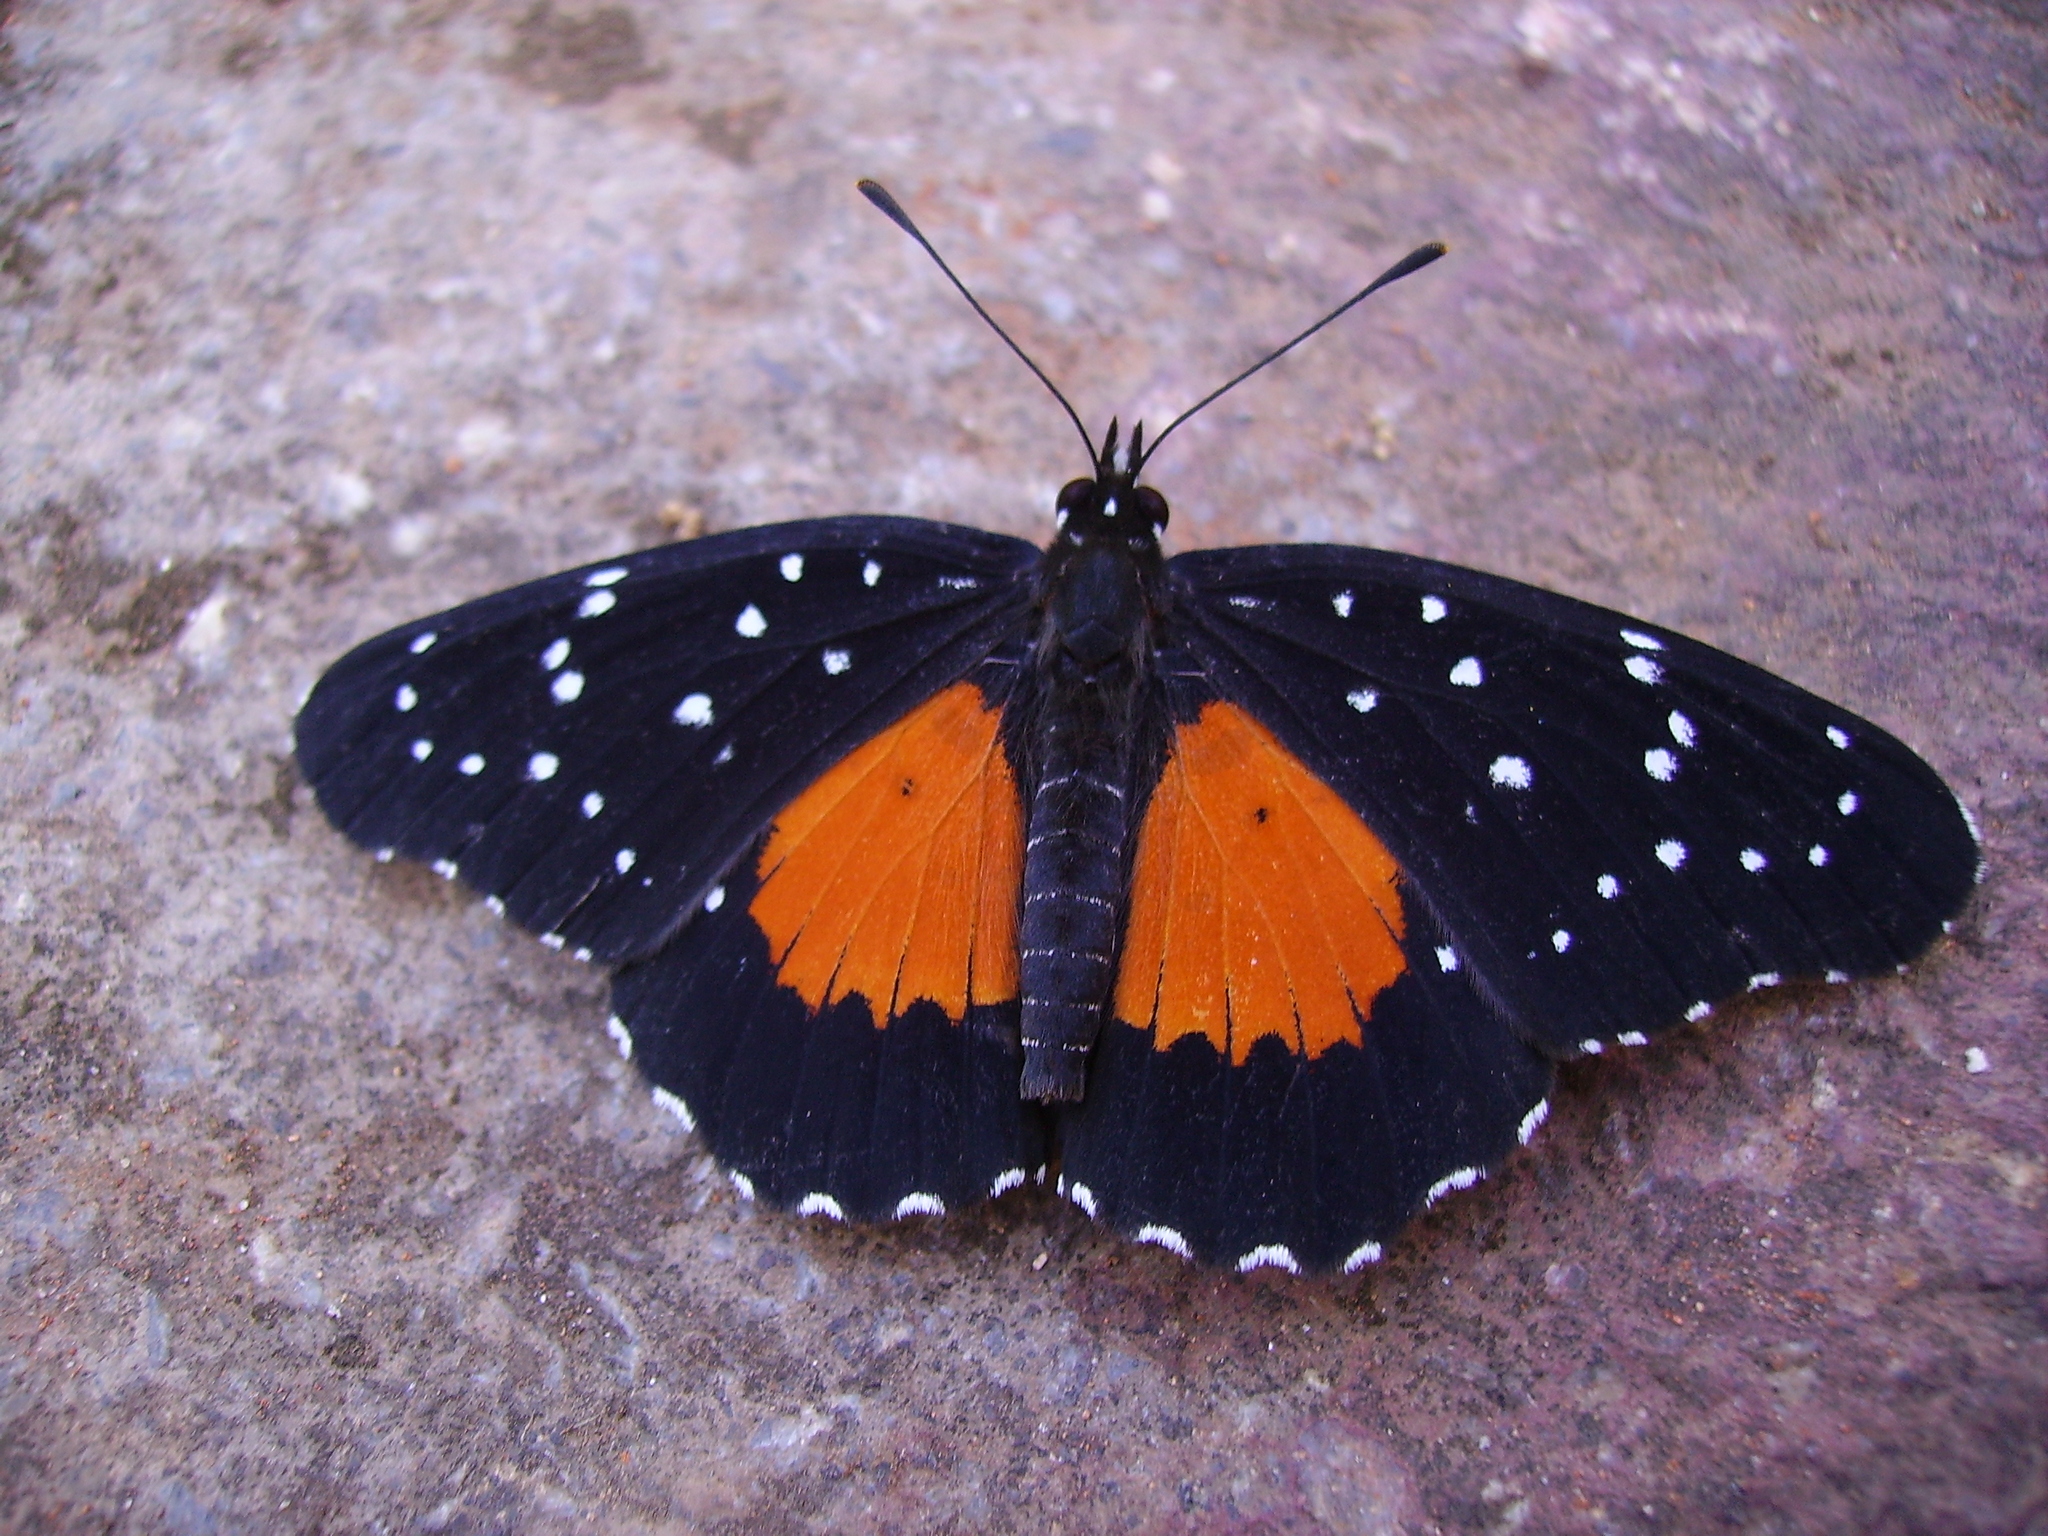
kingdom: Animalia
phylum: Arthropoda
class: Insecta
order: Lepidoptera
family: Nymphalidae
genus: Chlosyne
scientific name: Chlosyne janais
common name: Crimson patch
